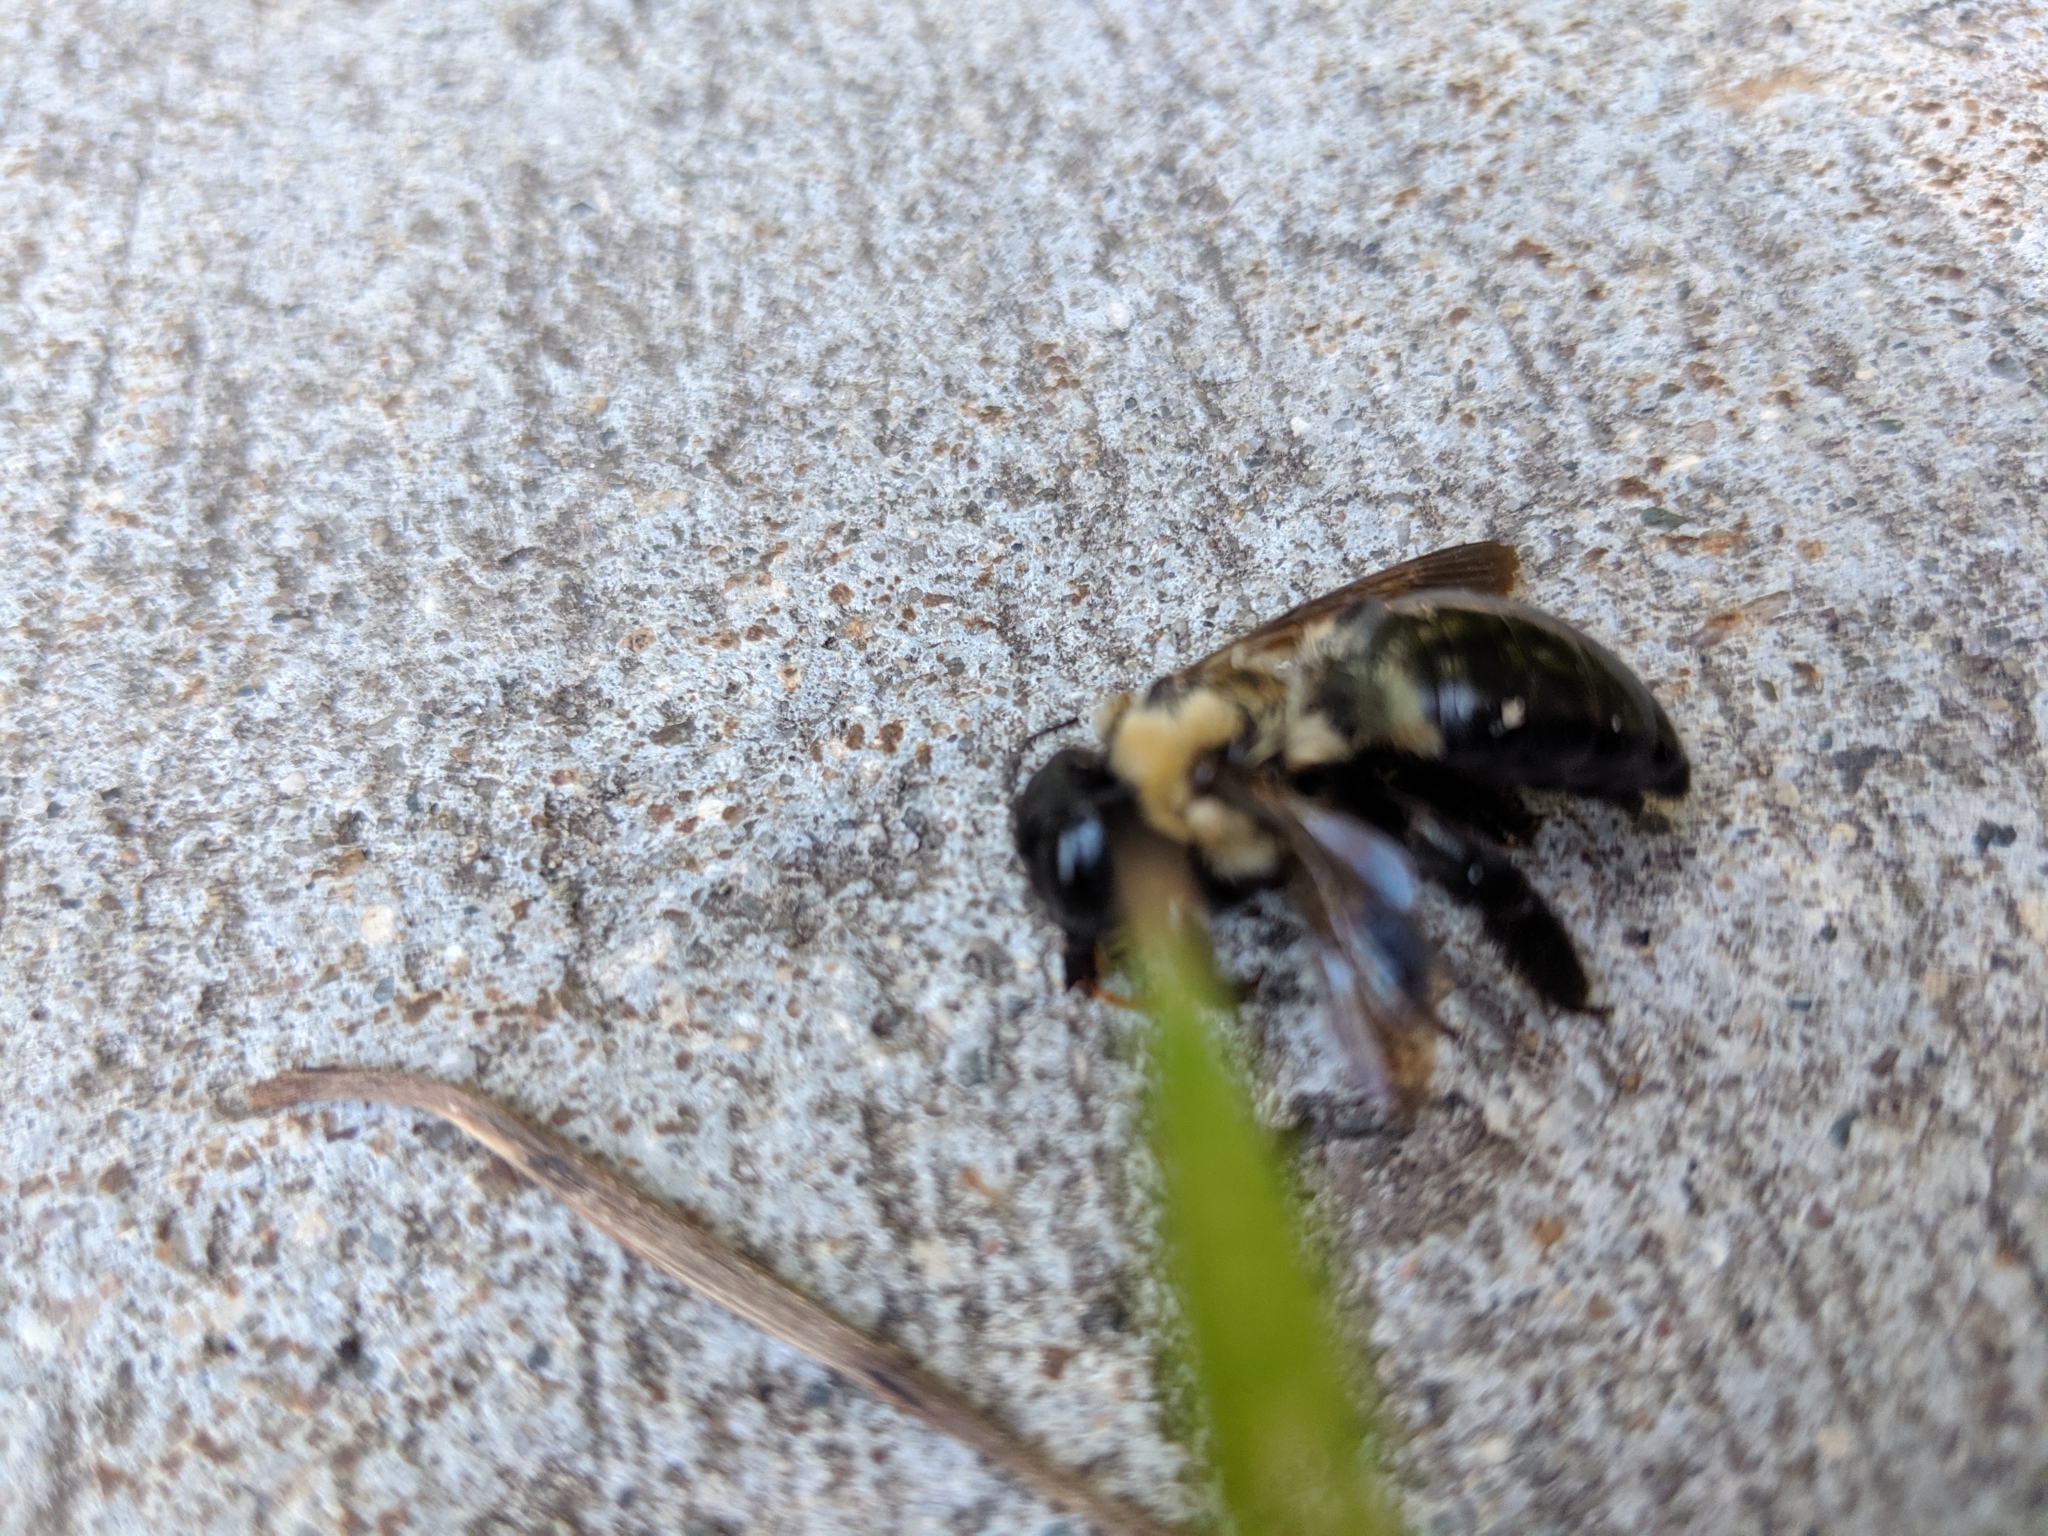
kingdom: Animalia
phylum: Arthropoda
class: Insecta
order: Hymenoptera
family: Apidae
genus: Xylocopa
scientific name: Xylocopa virginica
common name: Carpenter bee
